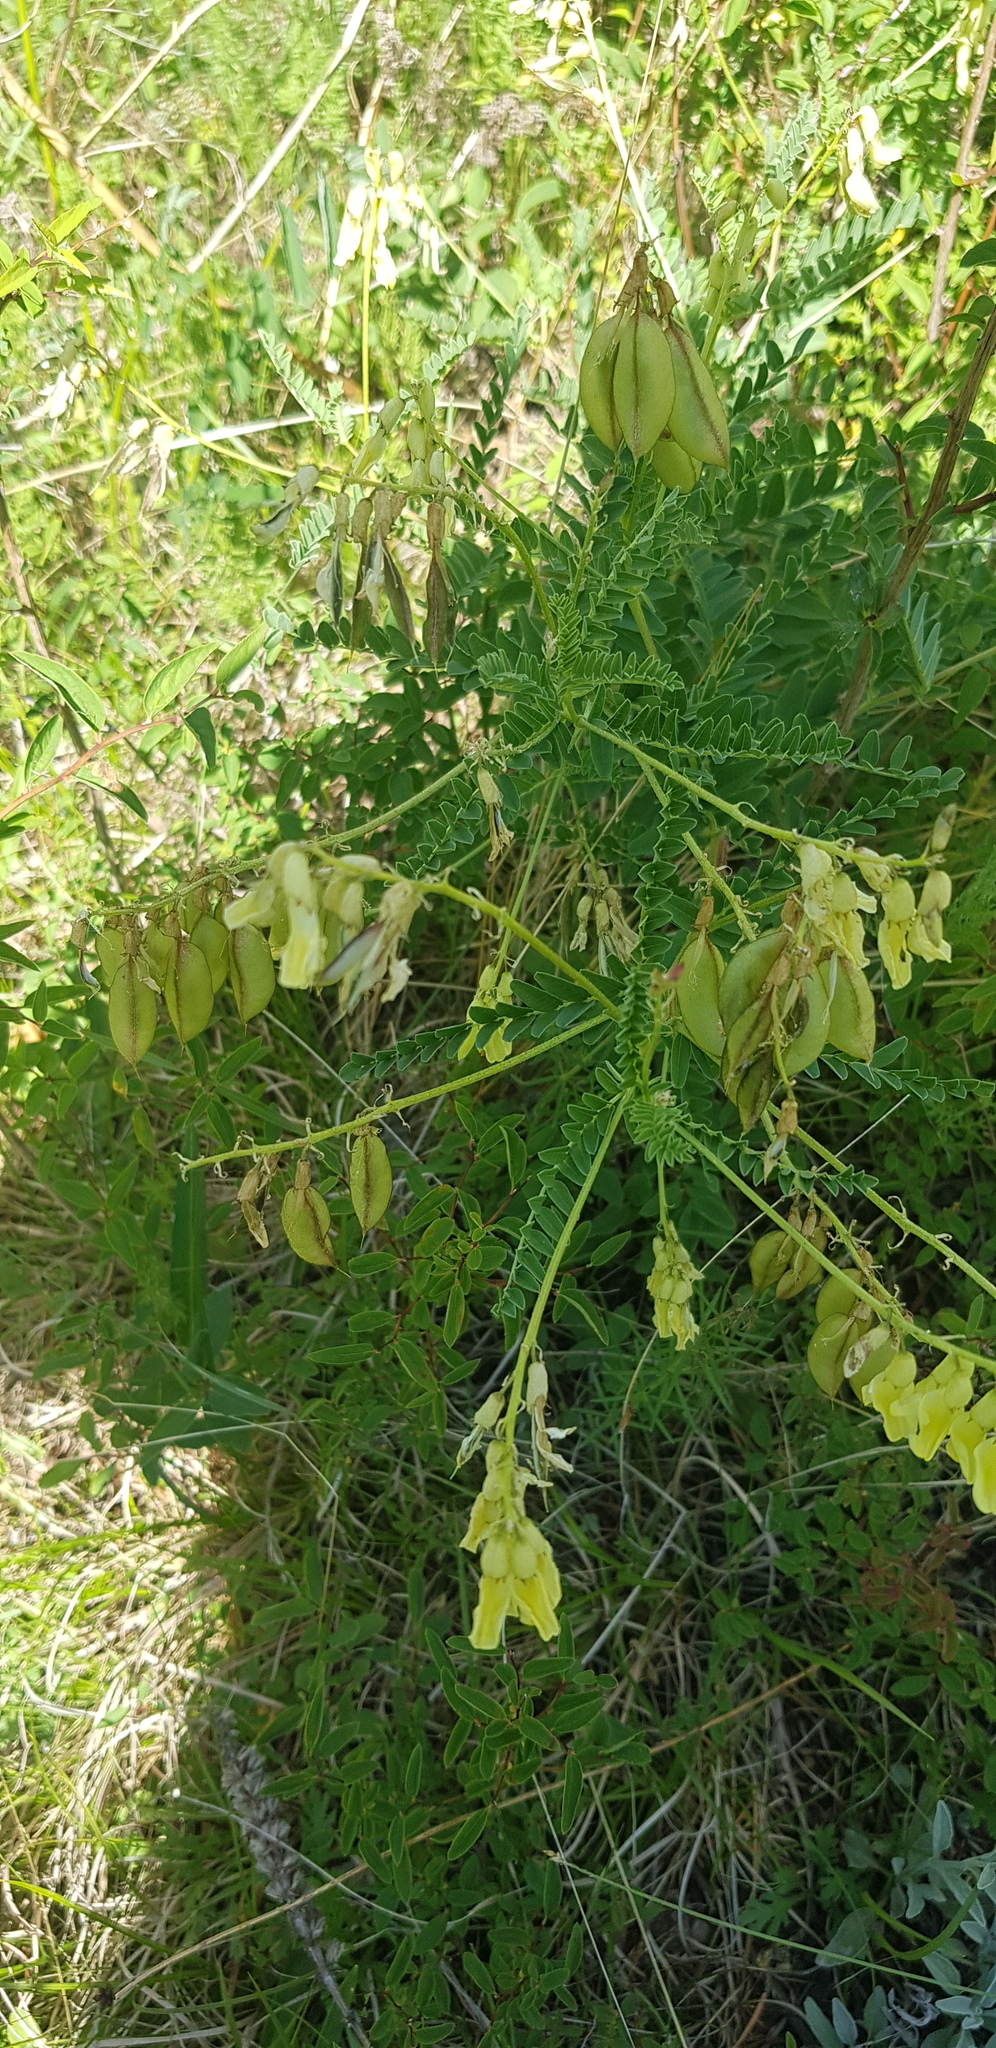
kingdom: Plantae
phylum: Tracheophyta
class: Magnoliopsida
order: Fabales
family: Fabaceae
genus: Astragalus
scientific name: Astragalus
